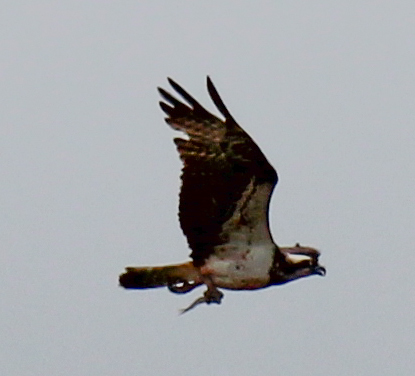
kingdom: Animalia
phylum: Chordata
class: Aves
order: Accipitriformes
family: Pandionidae
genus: Pandion
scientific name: Pandion haliaetus
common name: Osprey
